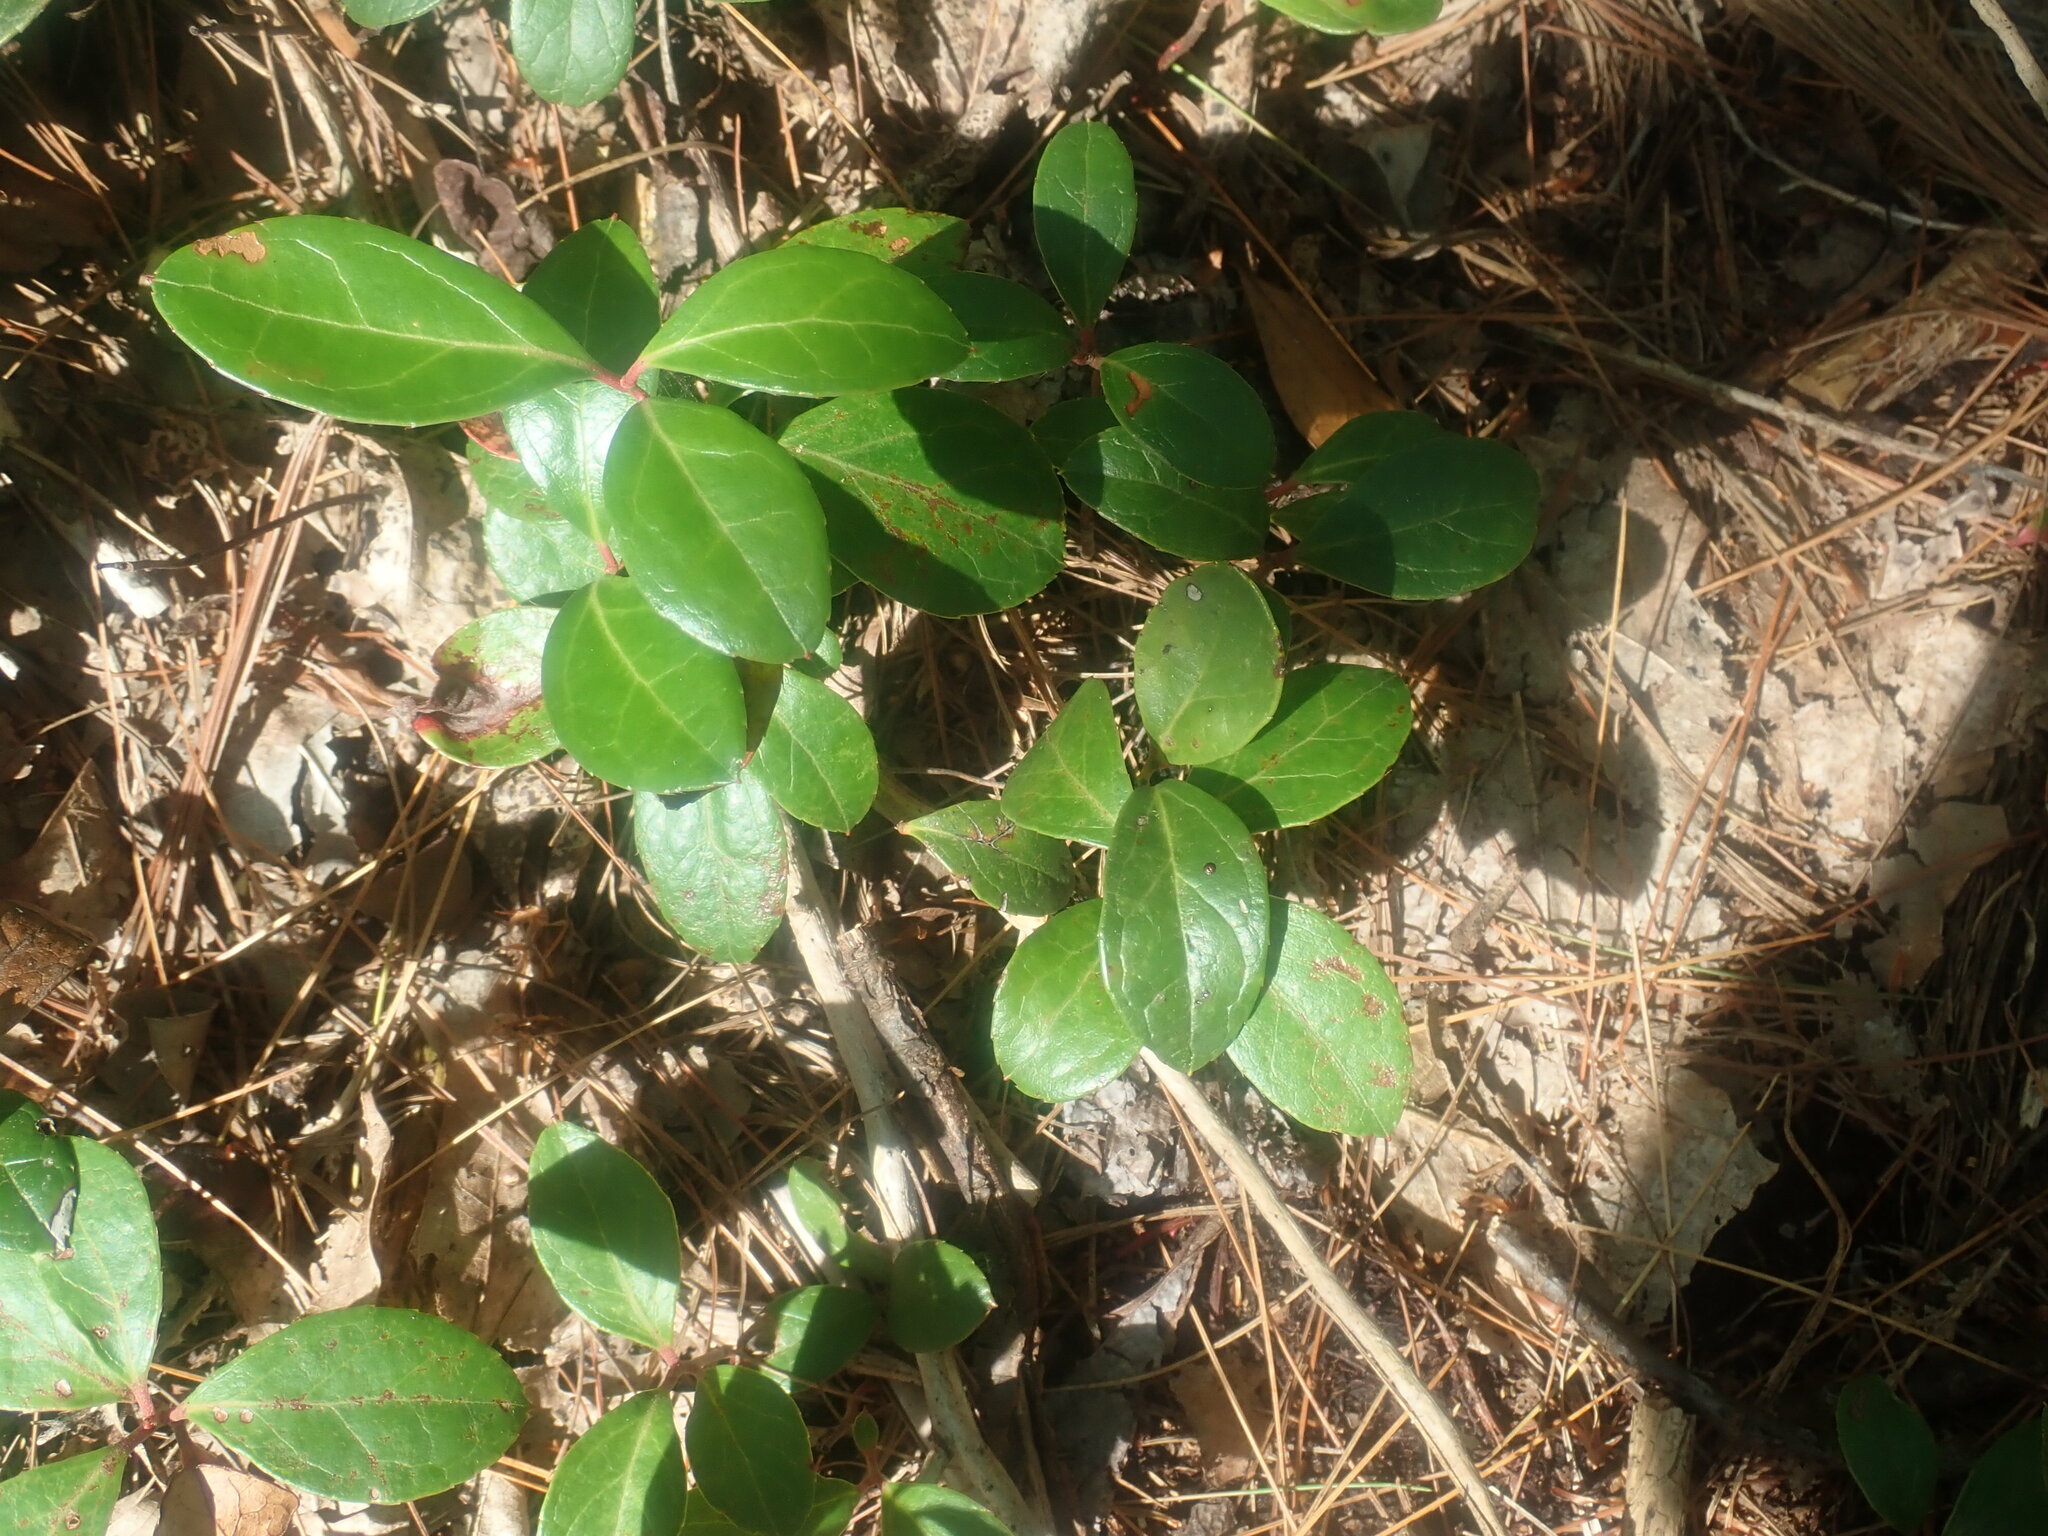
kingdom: Plantae
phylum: Tracheophyta
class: Magnoliopsida
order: Ericales
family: Ericaceae
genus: Gaultheria
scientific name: Gaultheria procumbens
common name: Checkerberry
